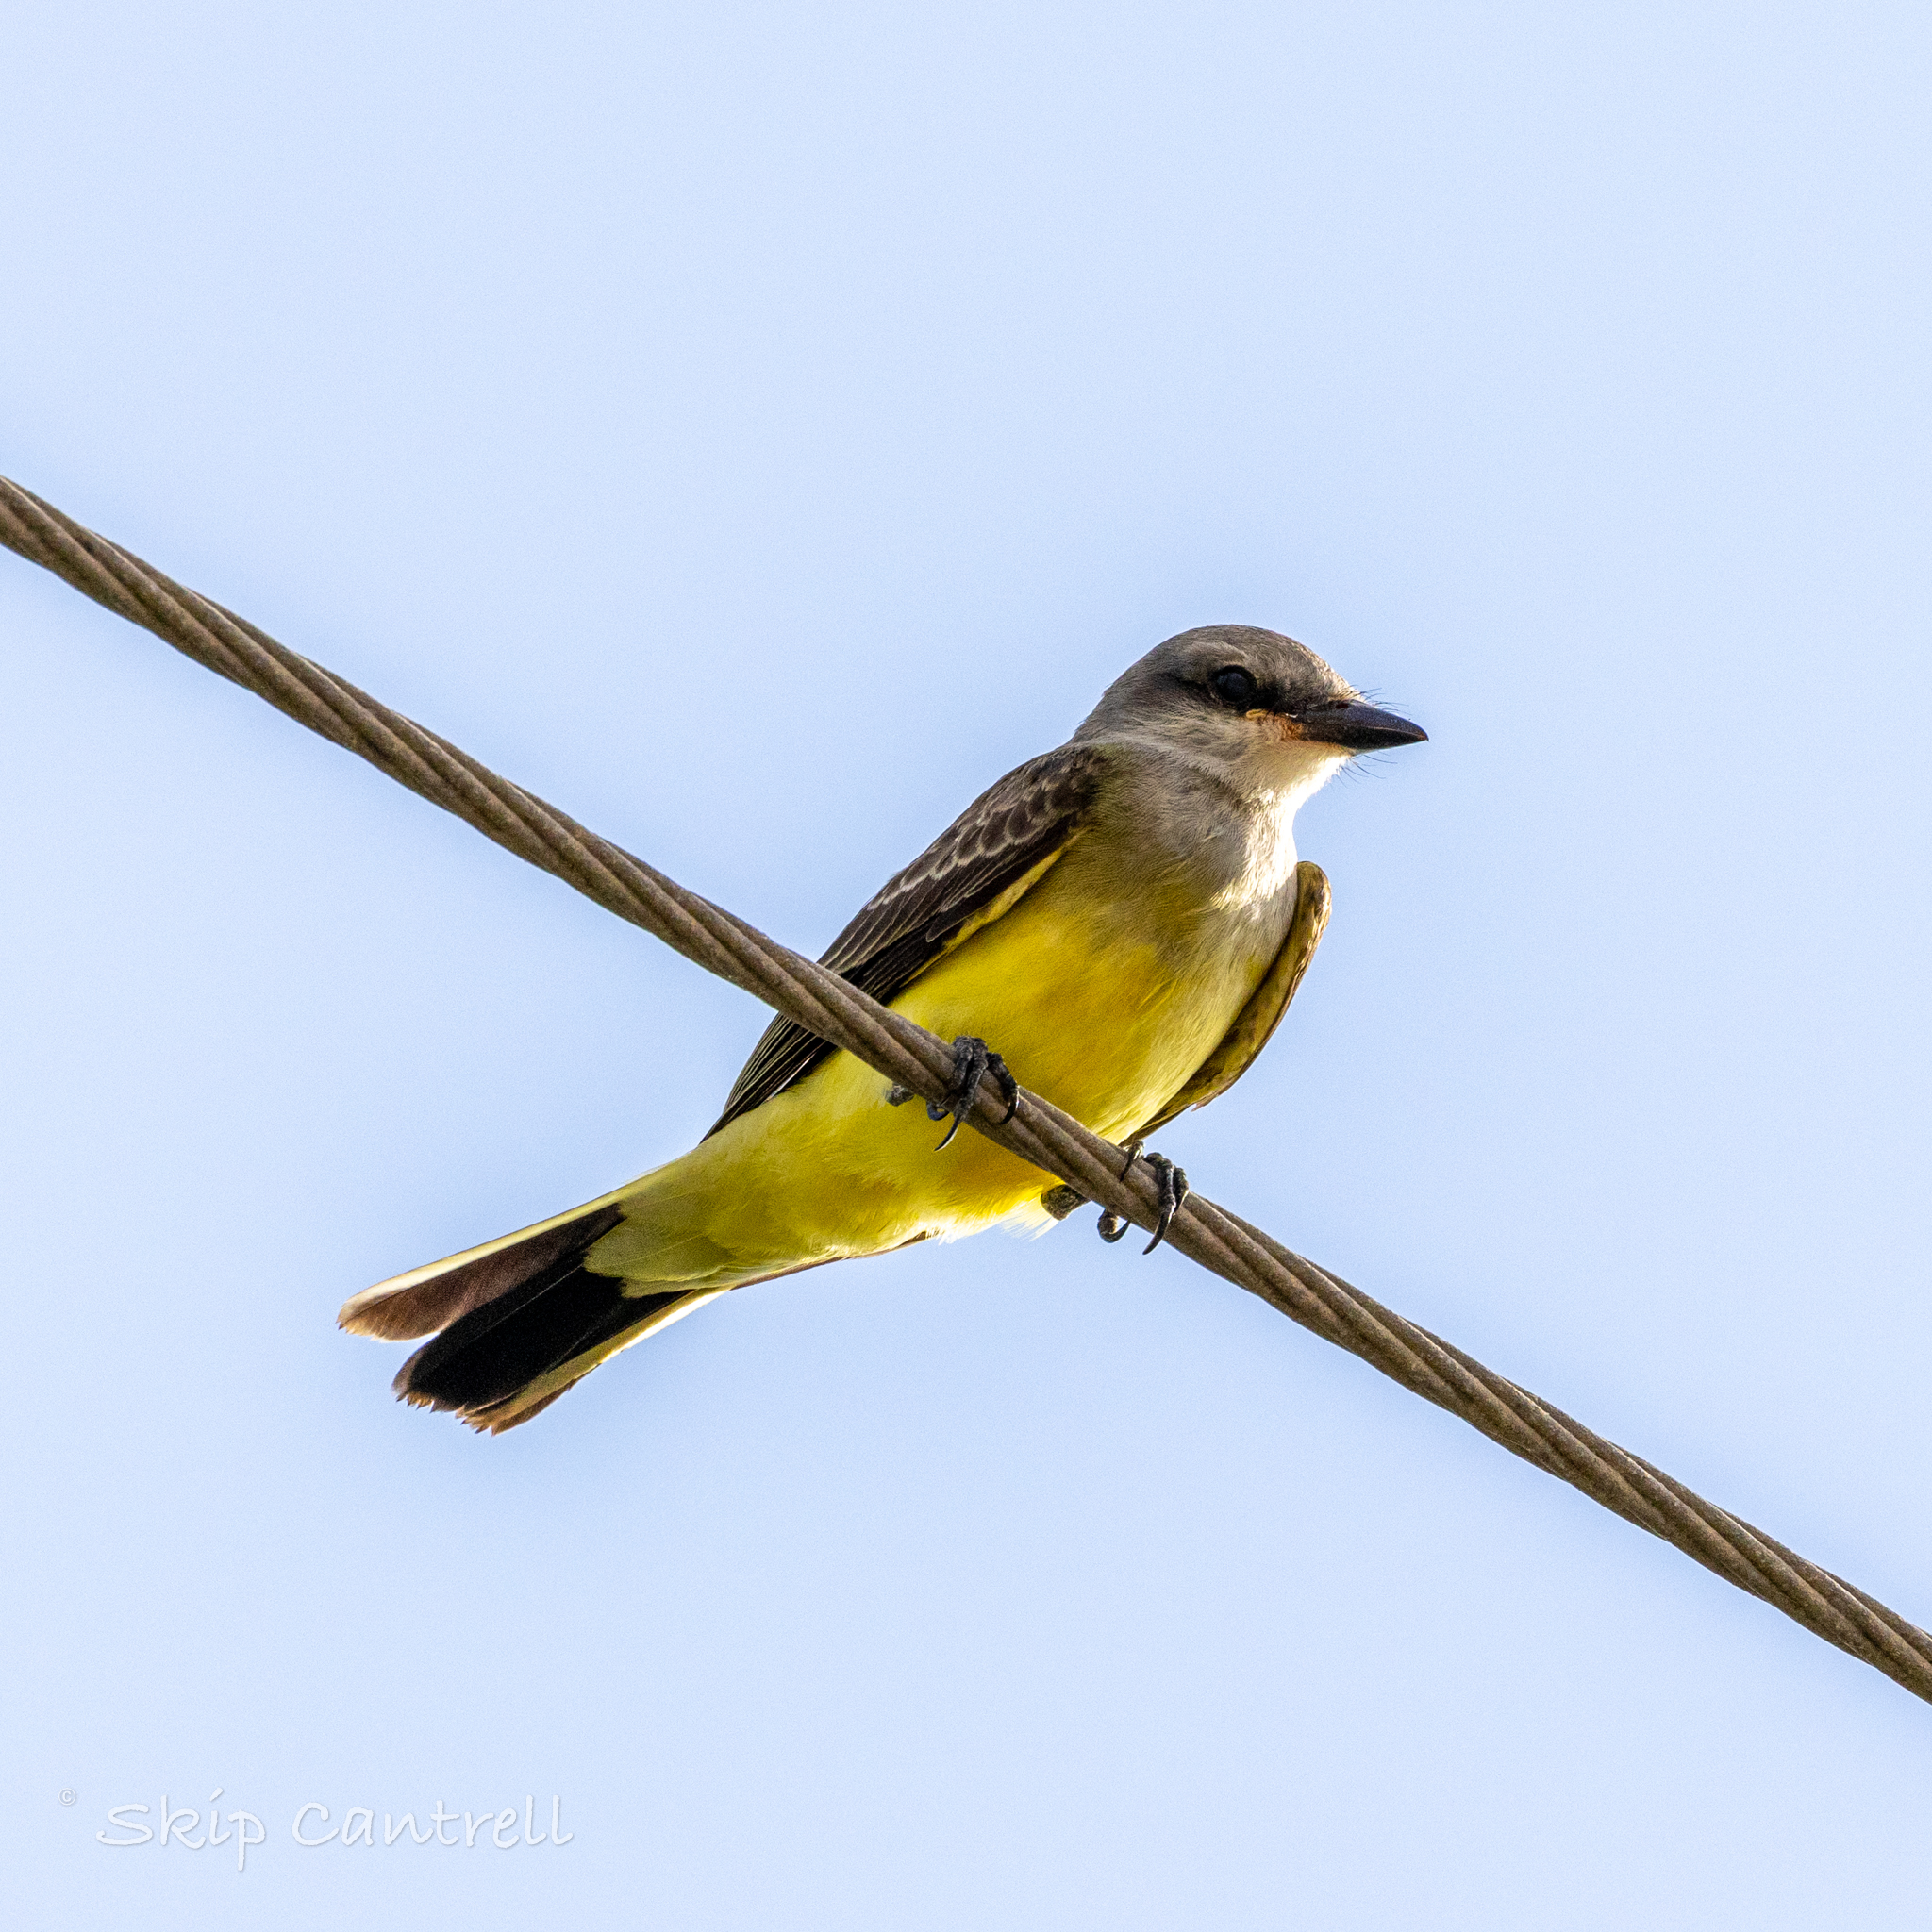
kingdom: Animalia
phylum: Chordata
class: Aves
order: Passeriformes
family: Tyrannidae
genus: Tyrannus
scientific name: Tyrannus verticalis
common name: Western kingbird
